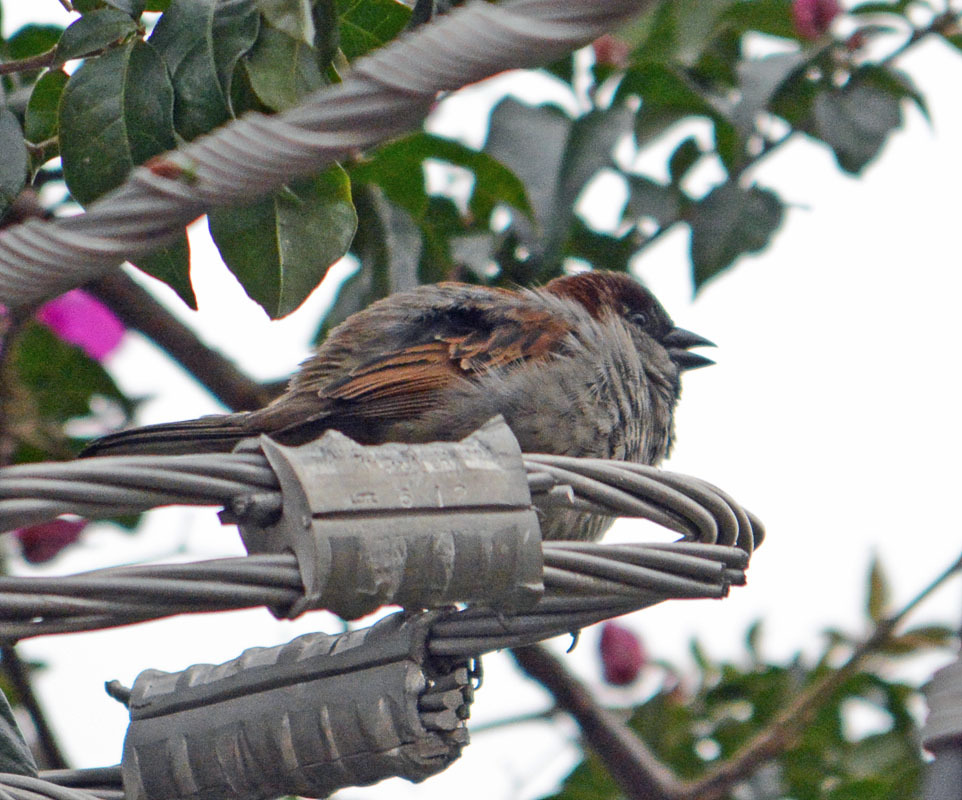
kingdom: Animalia
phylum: Chordata
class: Aves
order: Passeriformes
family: Passeridae
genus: Passer
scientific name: Passer domesticus
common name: House sparrow
